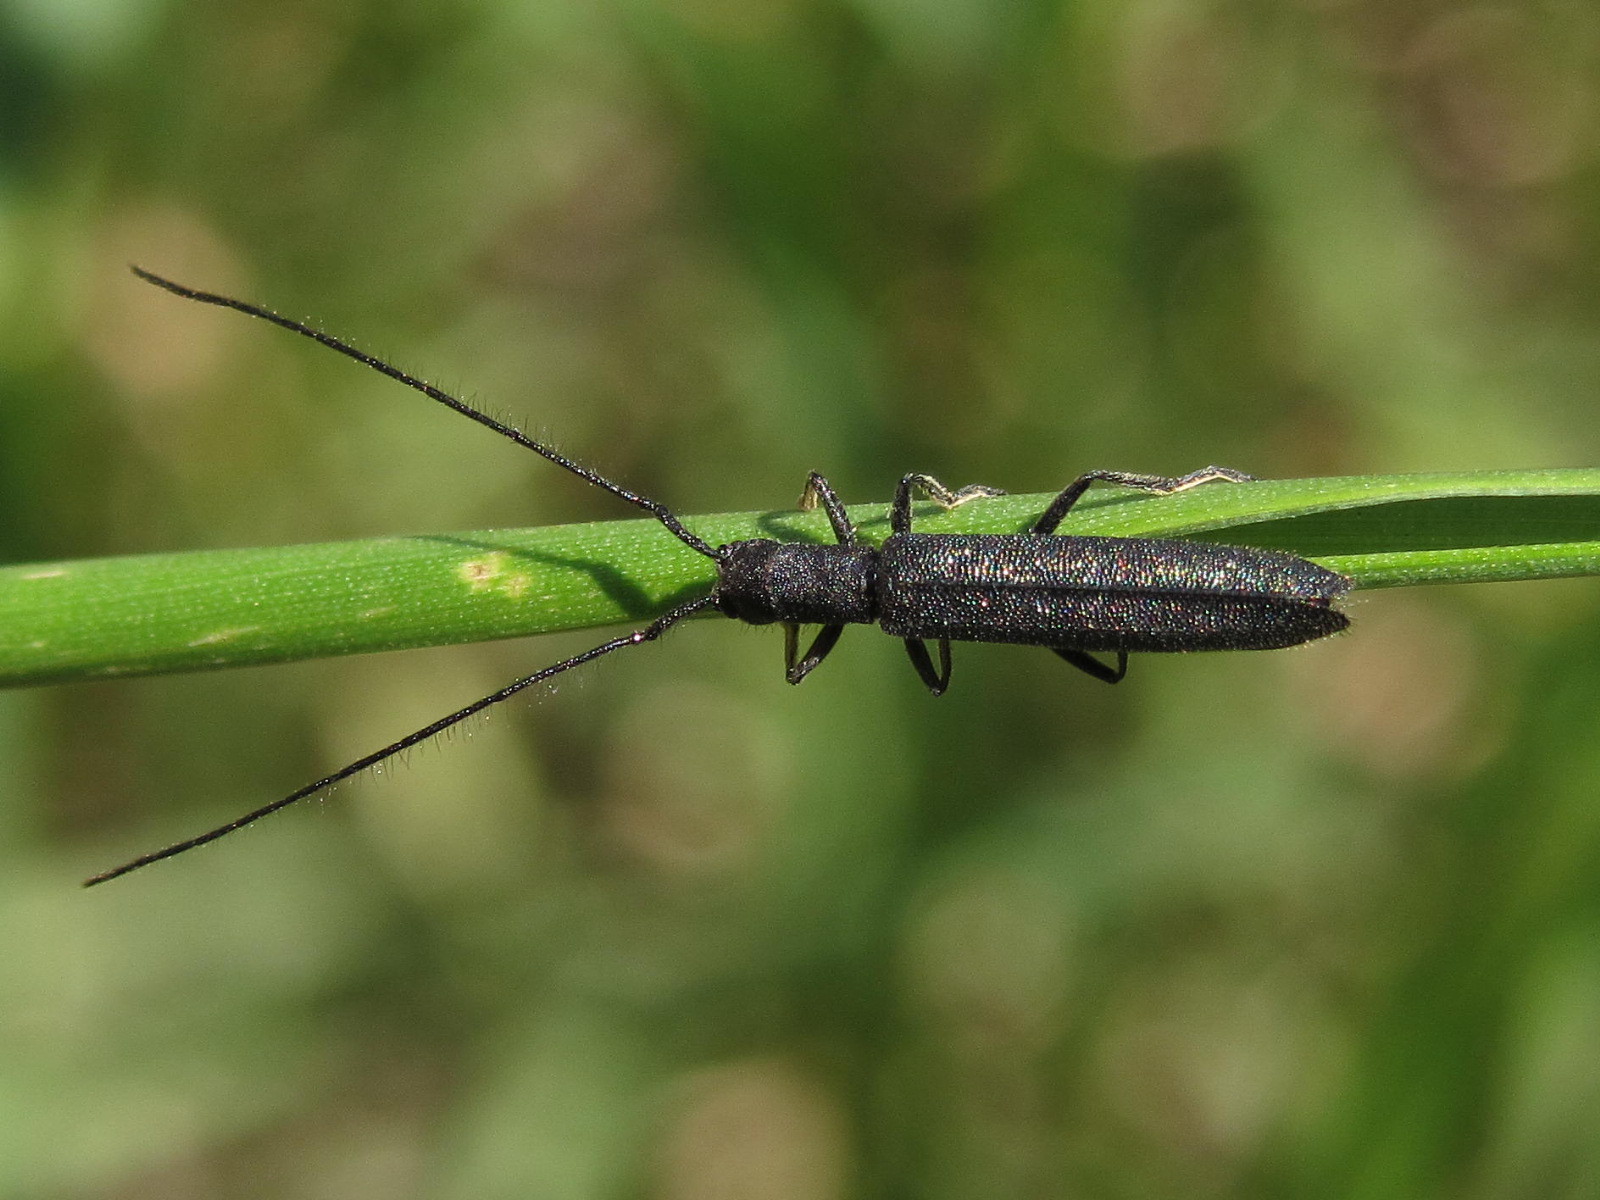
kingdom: Animalia
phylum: Arthropoda
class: Insecta
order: Coleoptera
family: Cerambycidae
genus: Theophilea
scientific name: Theophilea subcylindricollis
